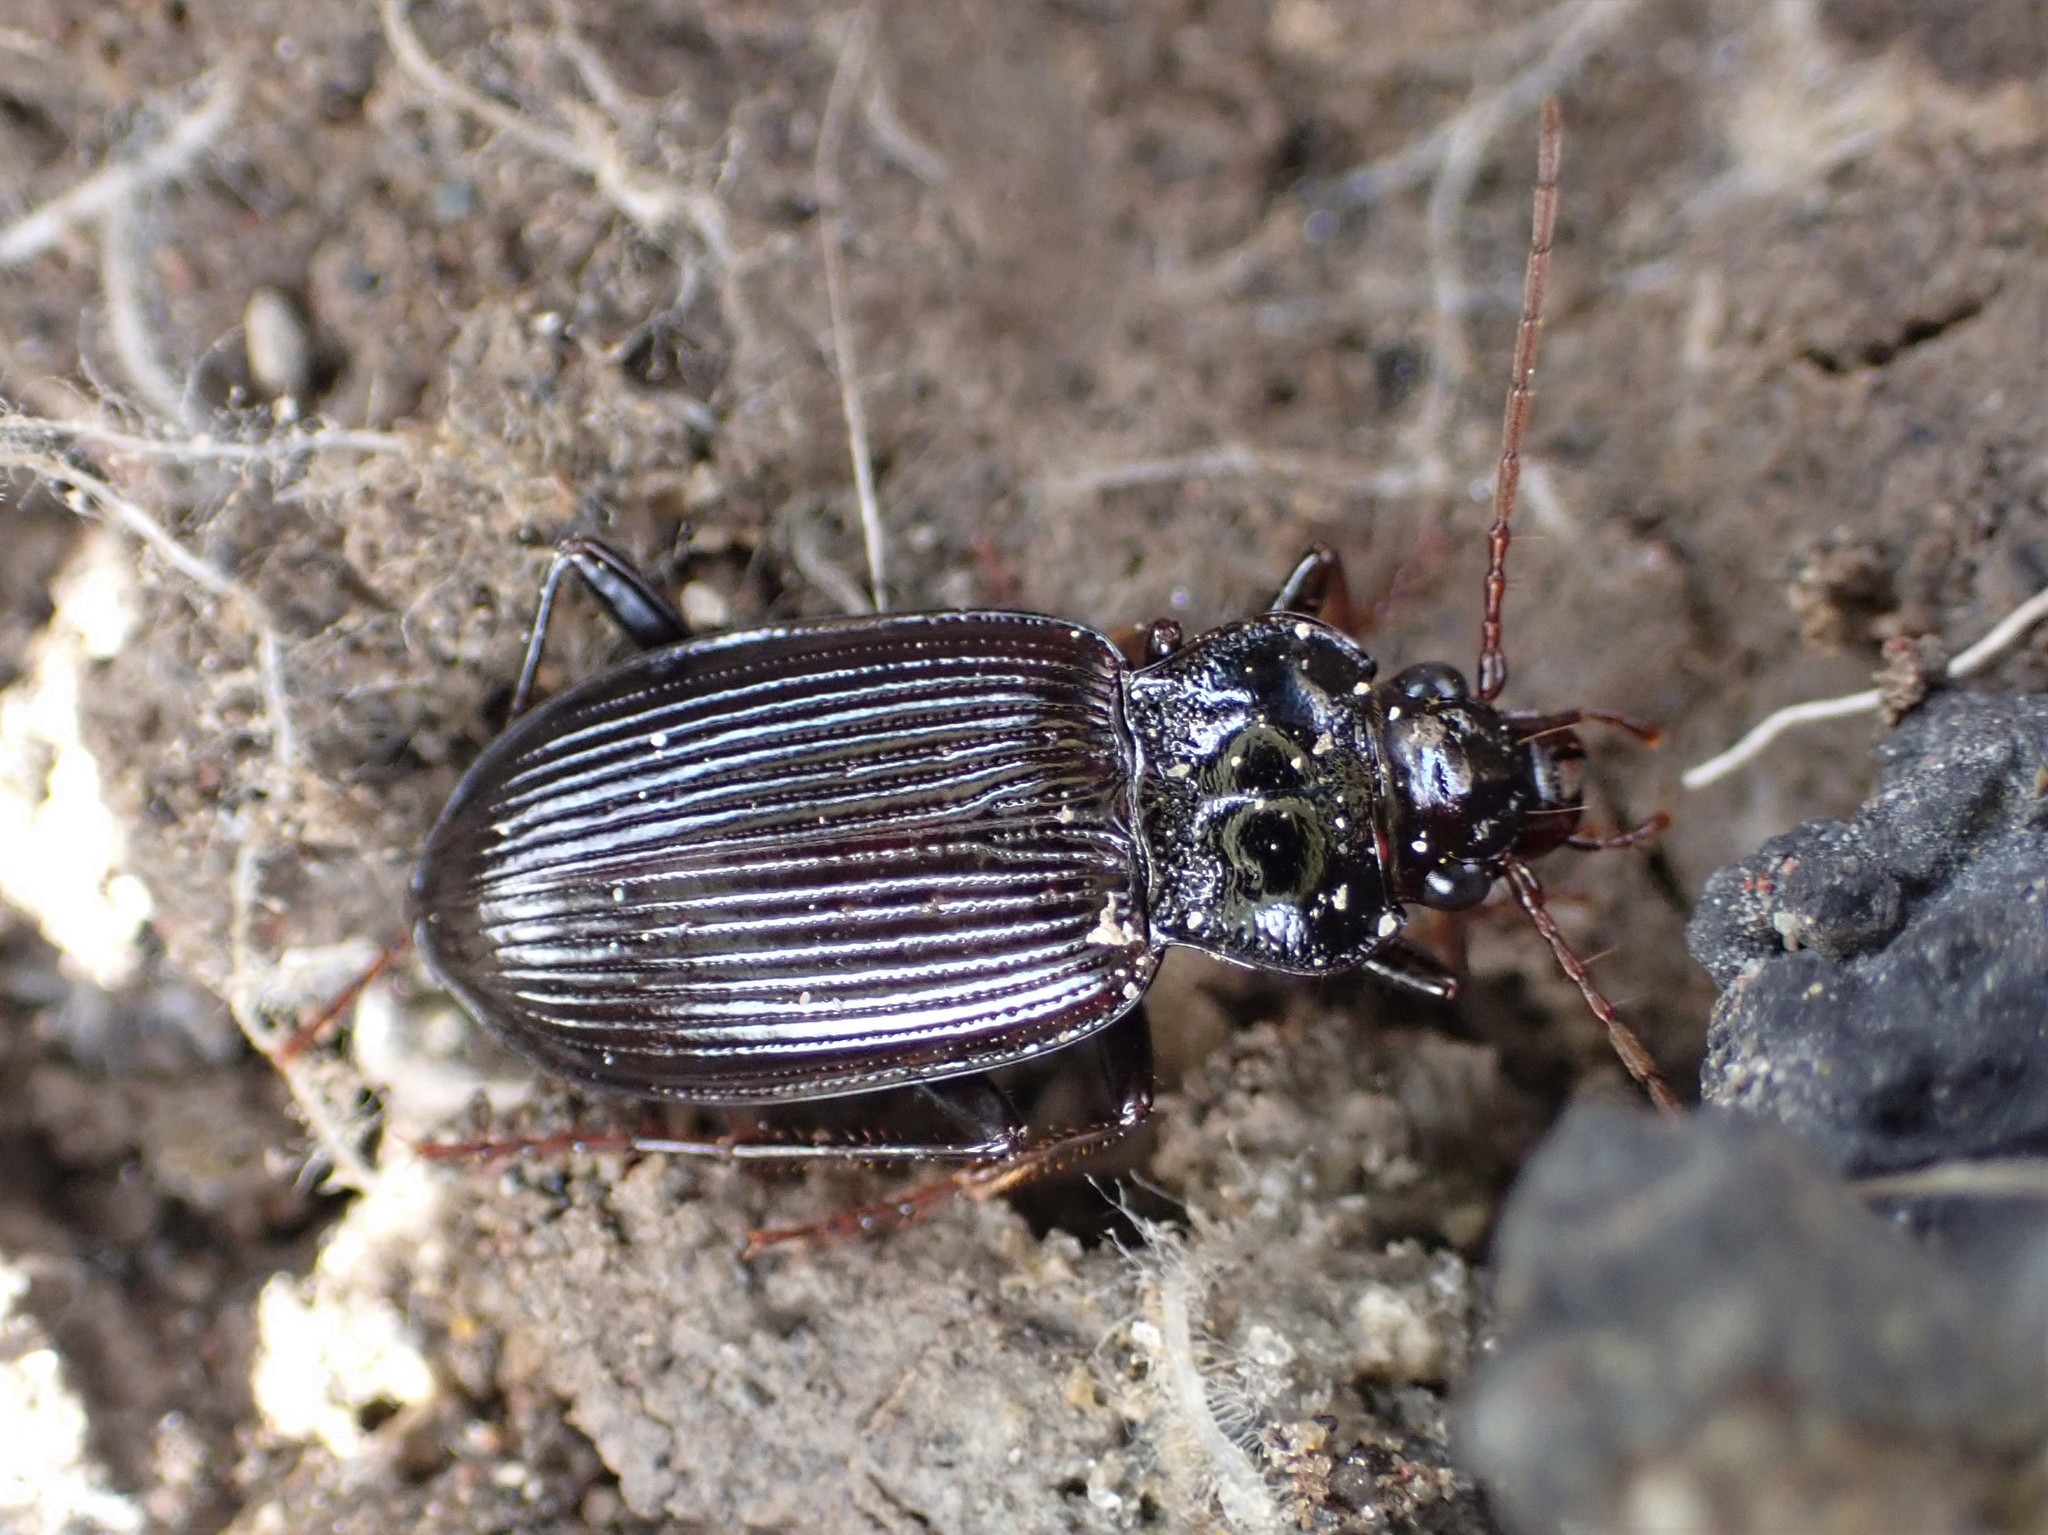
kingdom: Animalia
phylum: Arthropoda
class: Insecta
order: Coleoptera
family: Carabidae
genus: Nebria
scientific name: Nebria brevicollis
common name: Short-necked gazelle beetle
